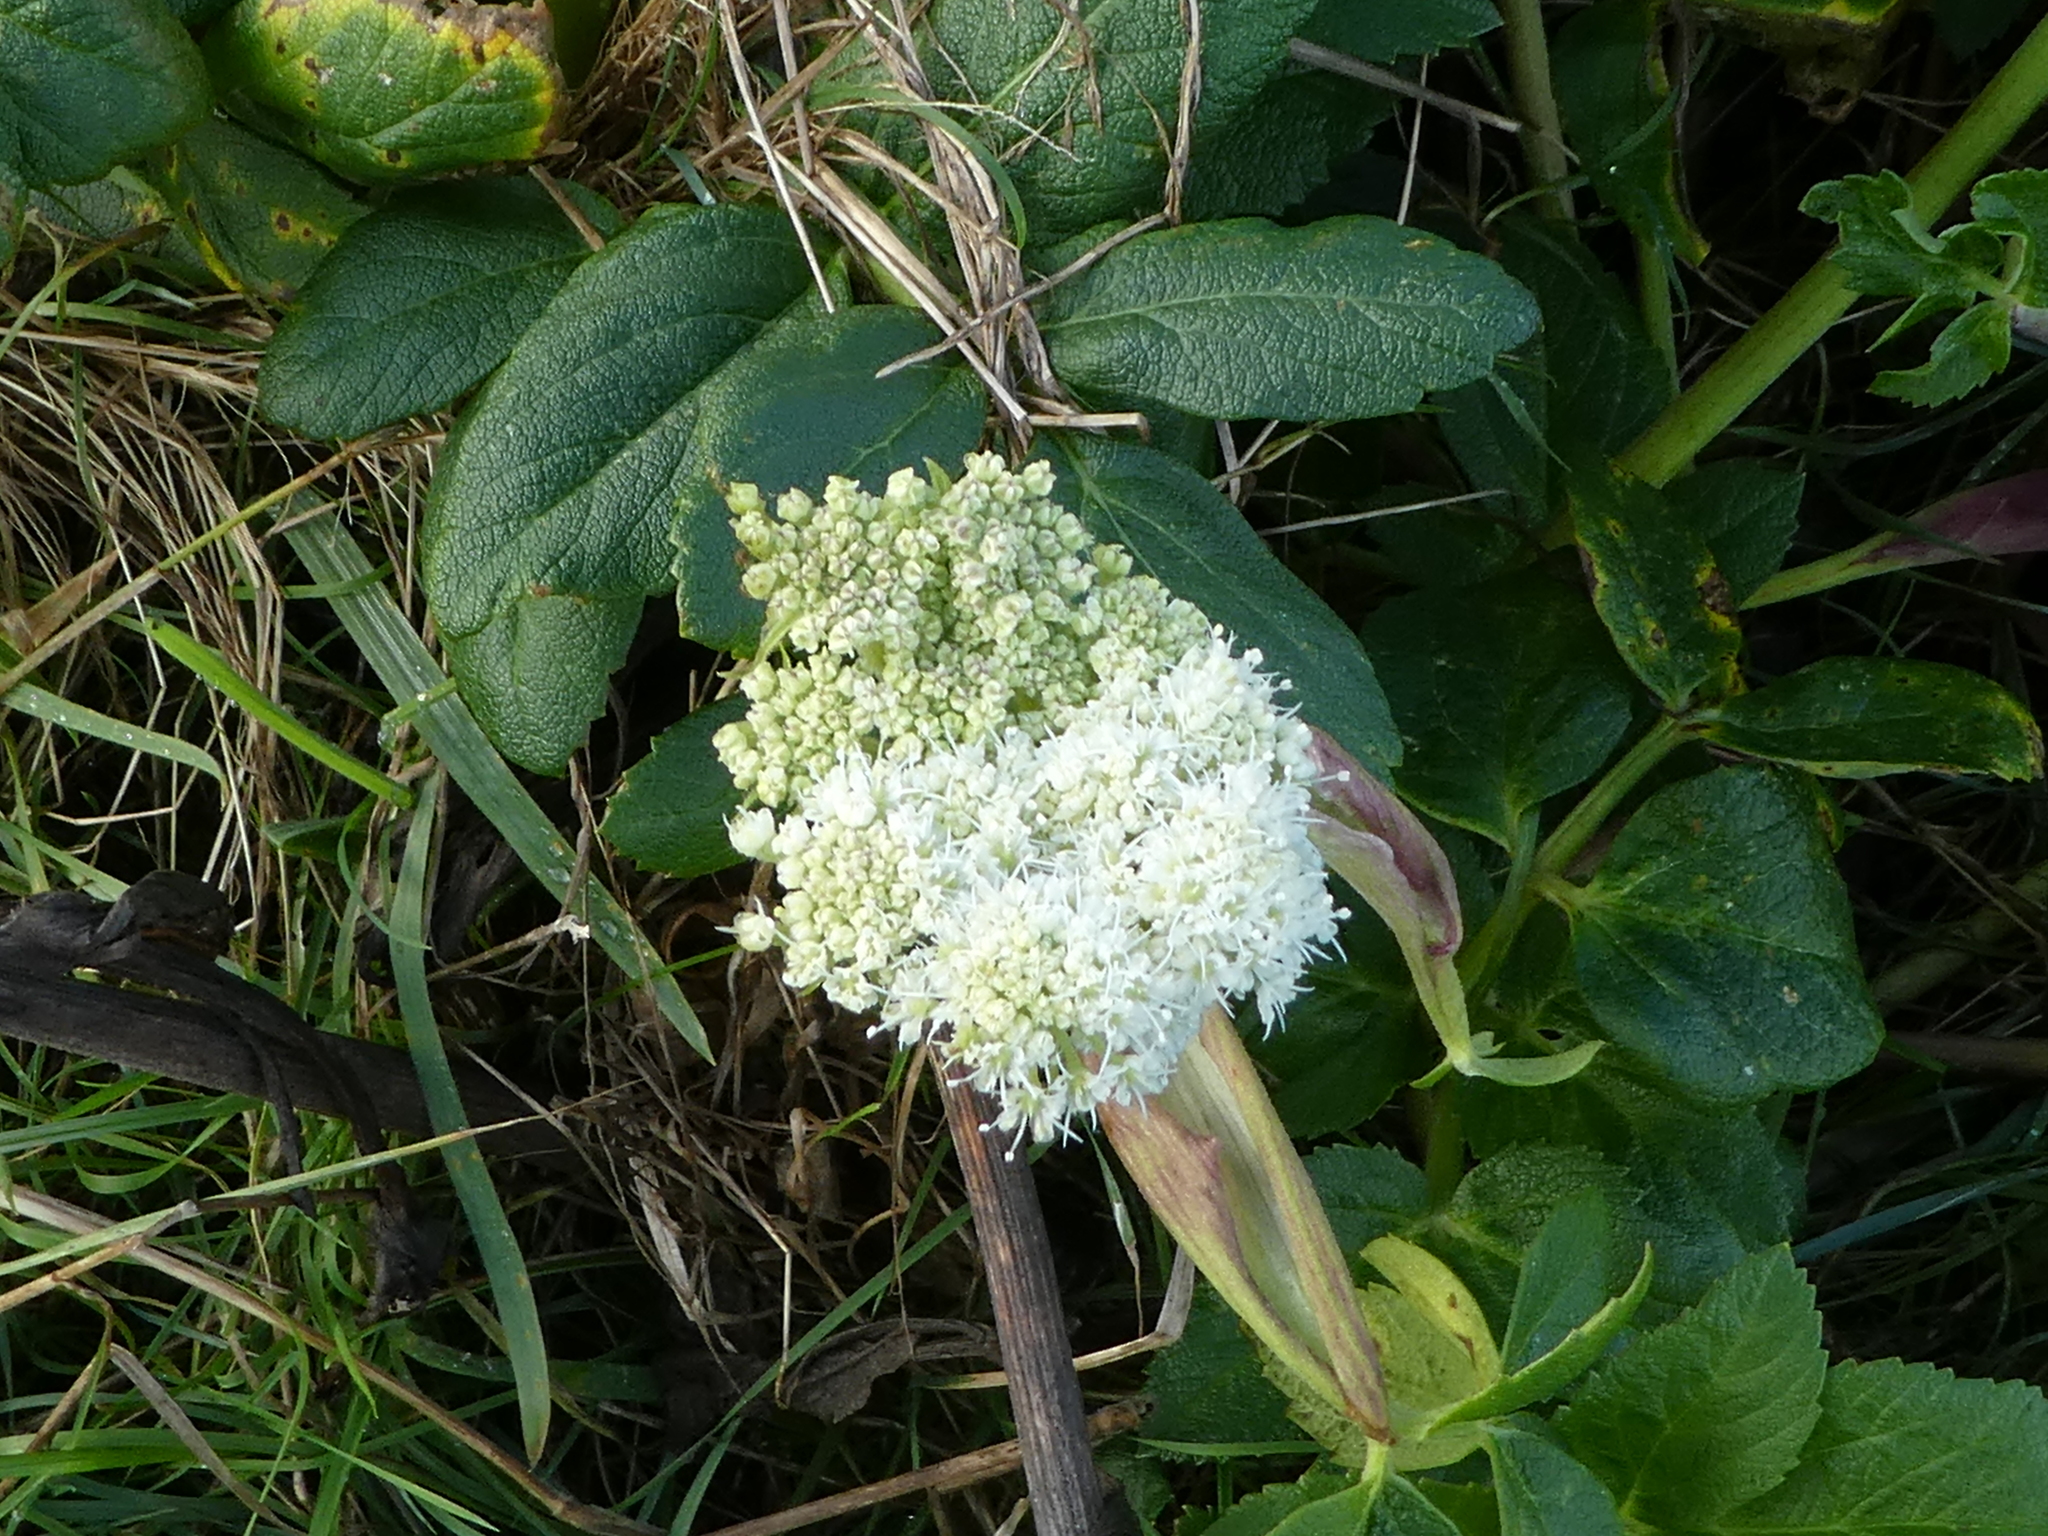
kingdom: Plantae
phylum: Tracheophyta
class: Magnoliopsida
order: Apiales
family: Apiaceae
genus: Angelica
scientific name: Angelica hendersonii
